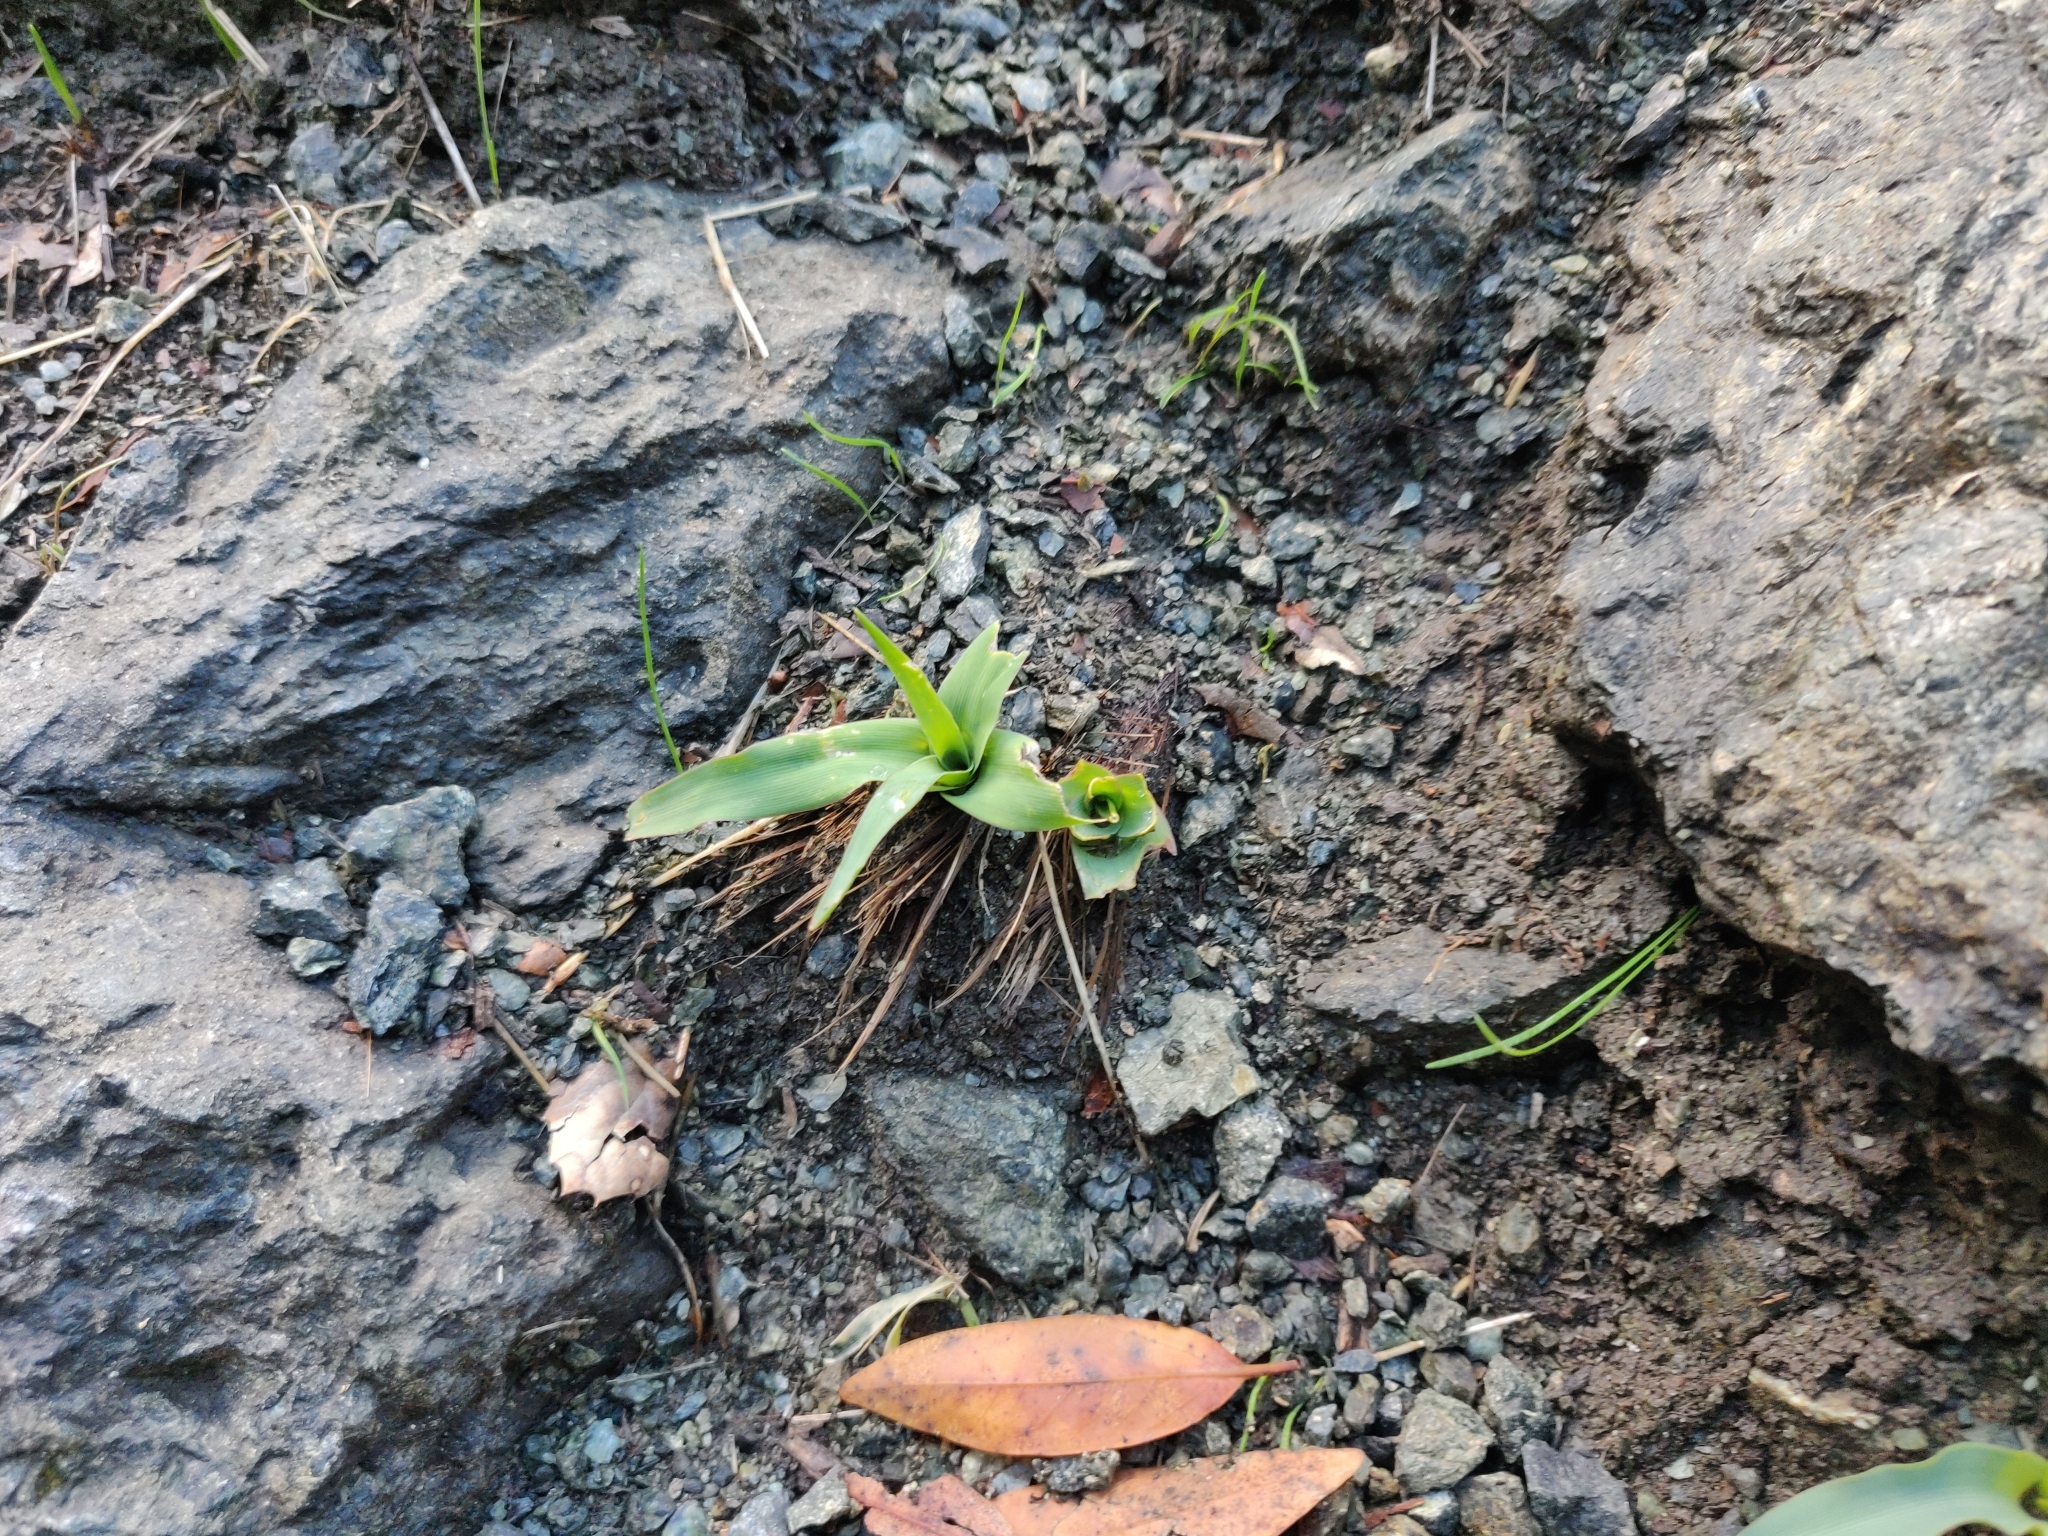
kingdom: Plantae
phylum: Tracheophyta
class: Liliopsida
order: Asparagales
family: Asparagaceae
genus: Chlorogalum
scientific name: Chlorogalum pomeridianum
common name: Amole
